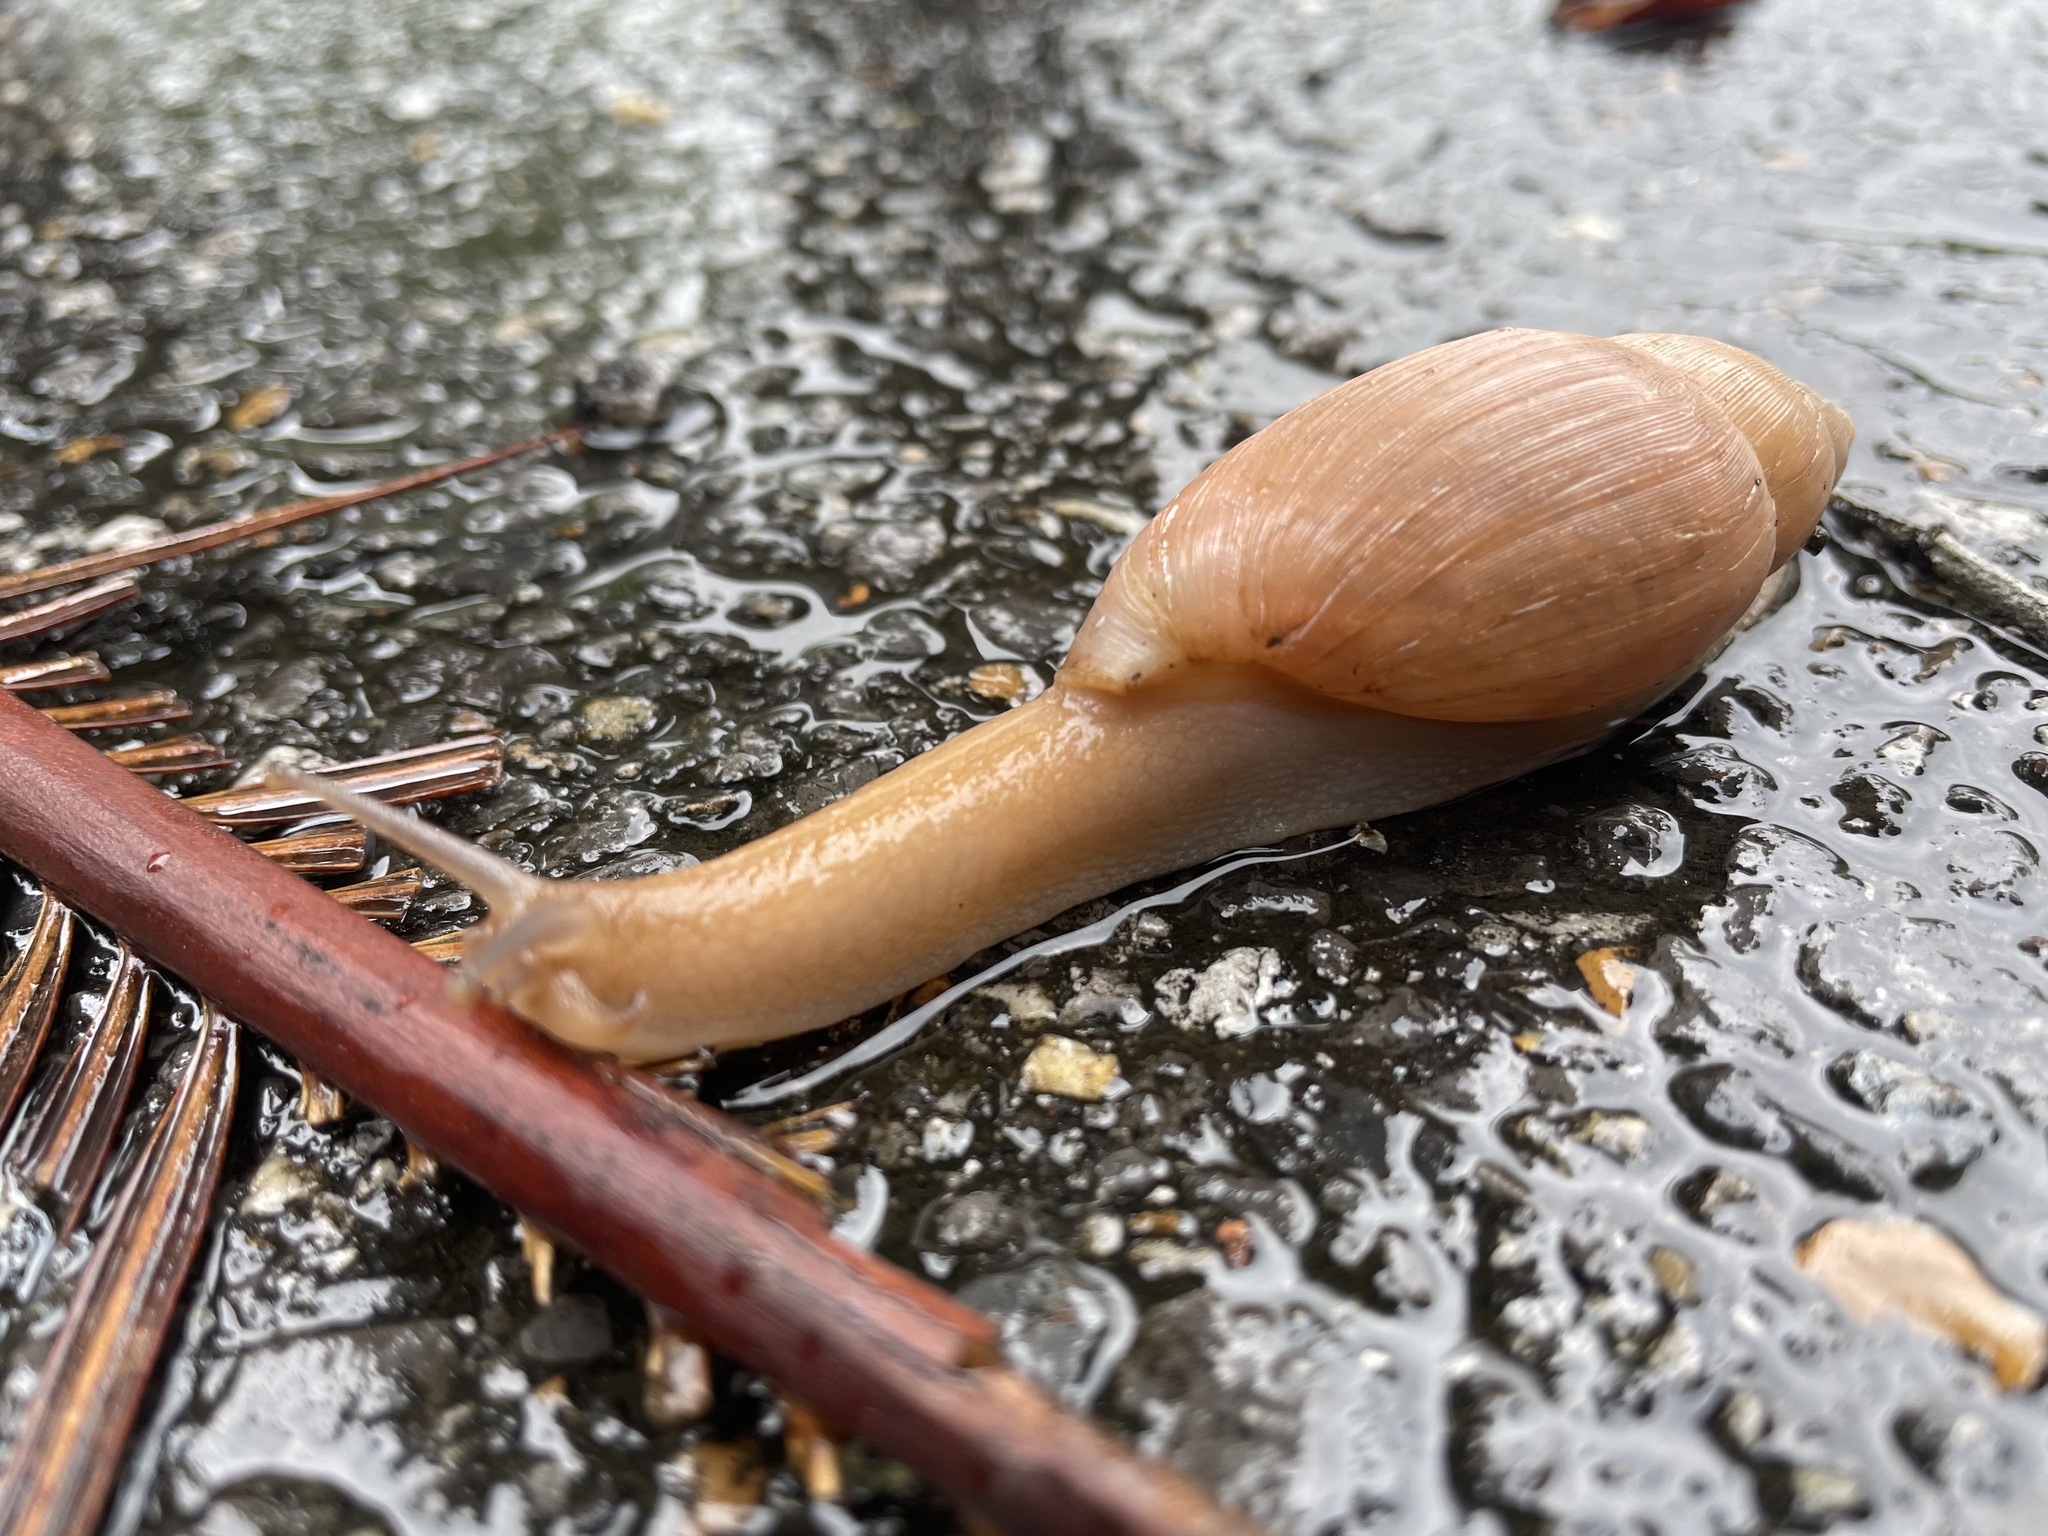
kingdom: Animalia
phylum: Mollusca
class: Gastropoda
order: Stylommatophora
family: Spiraxidae
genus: Euglandina
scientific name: Euglandina rosea
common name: Rosy wolfsnail
